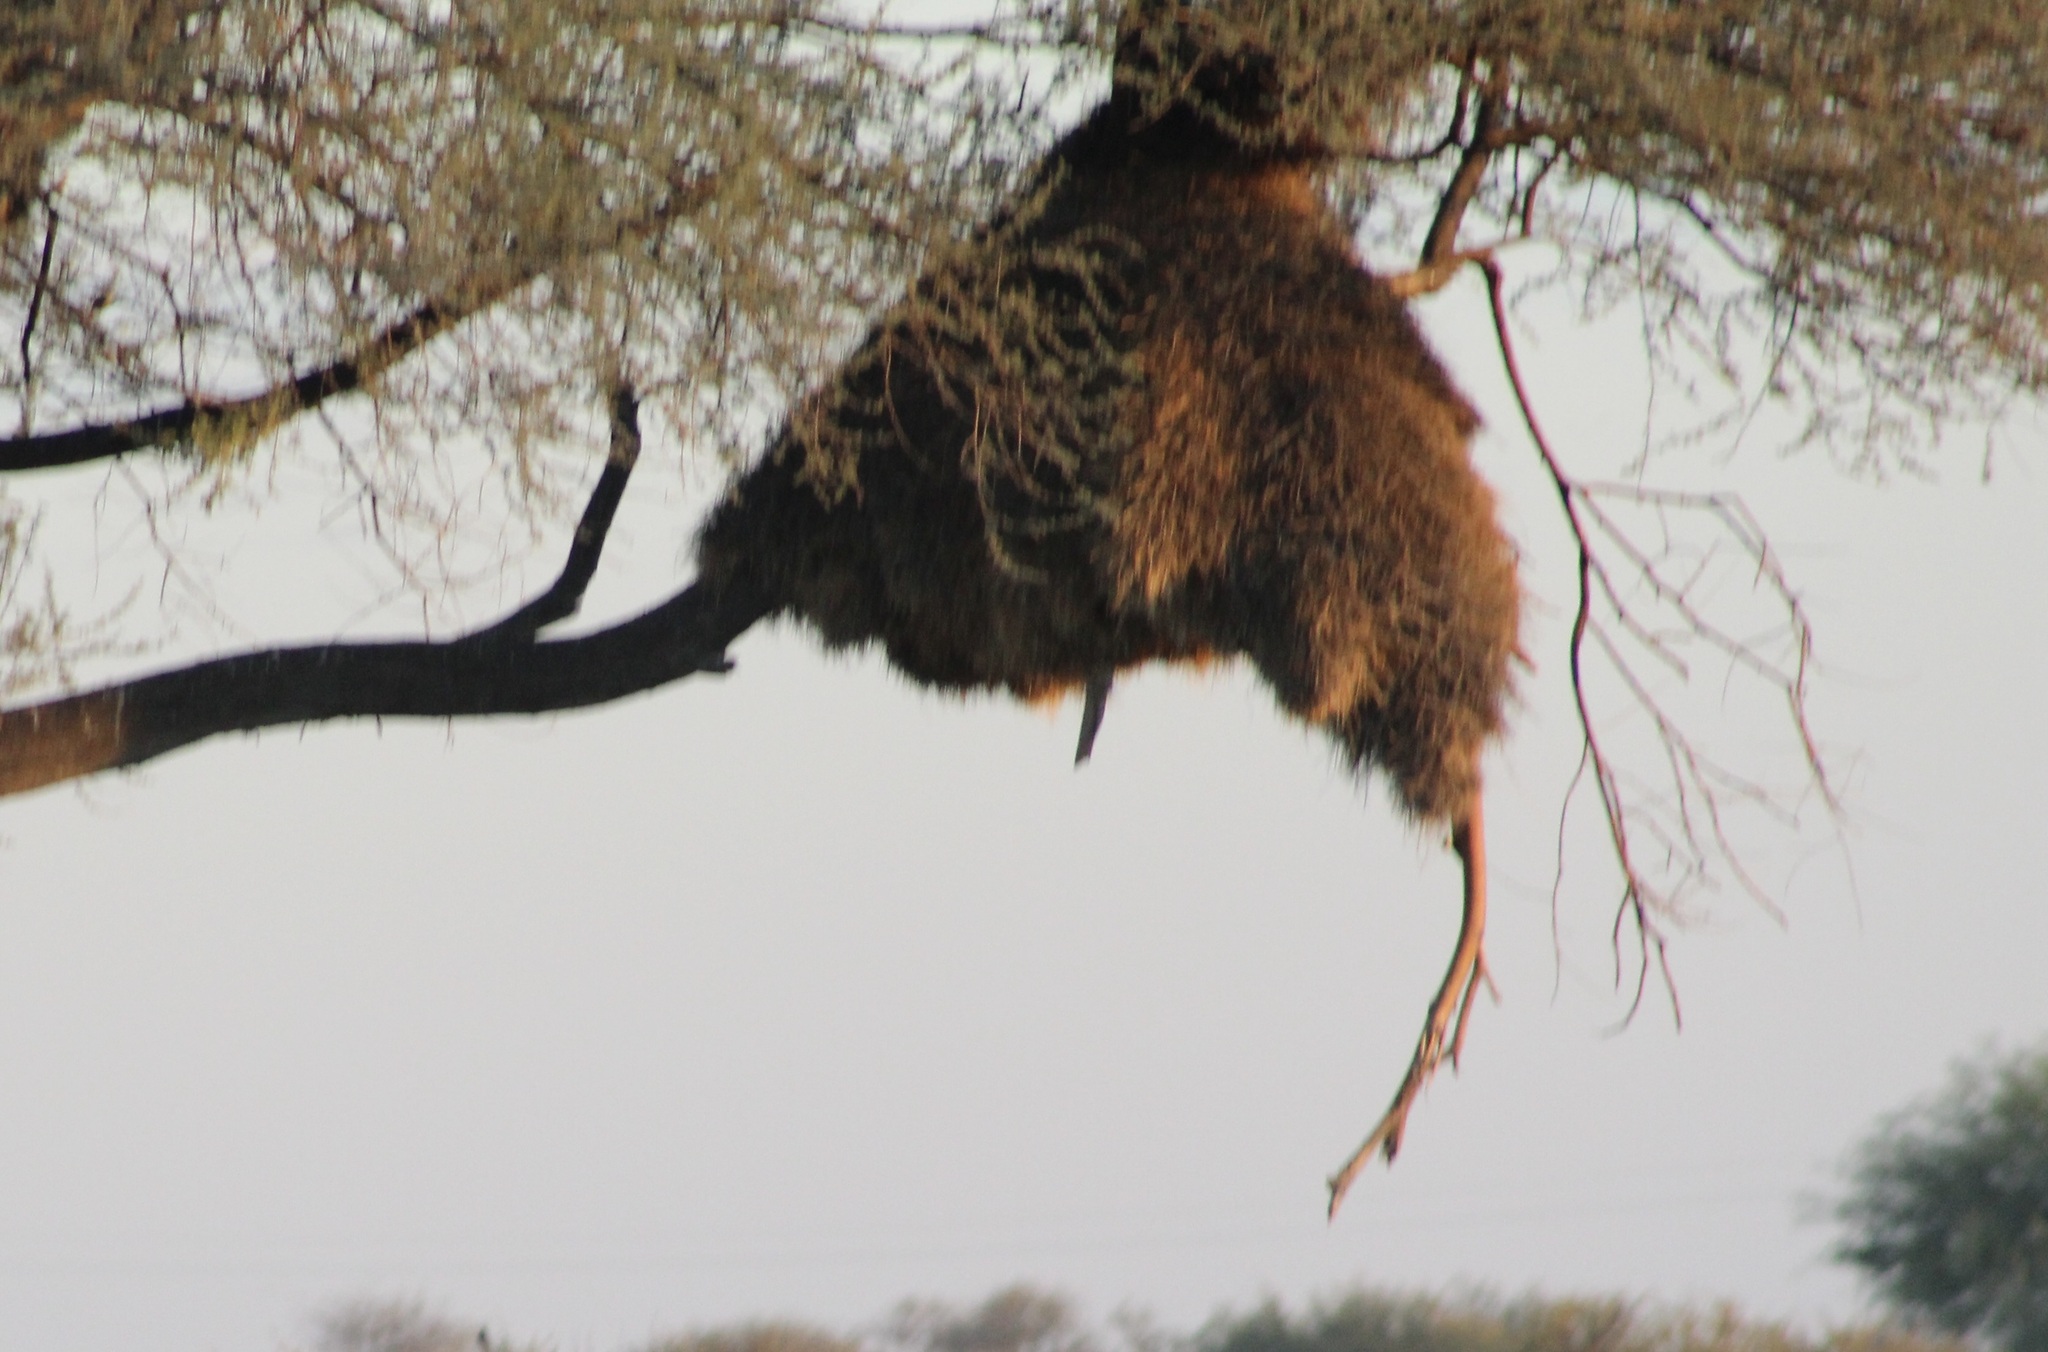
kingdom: Animalia
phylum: Chordata
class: Aves
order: Passeriformes
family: Passeridae
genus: Philetairus
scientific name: Philetairus socius
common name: Sociable weaver
